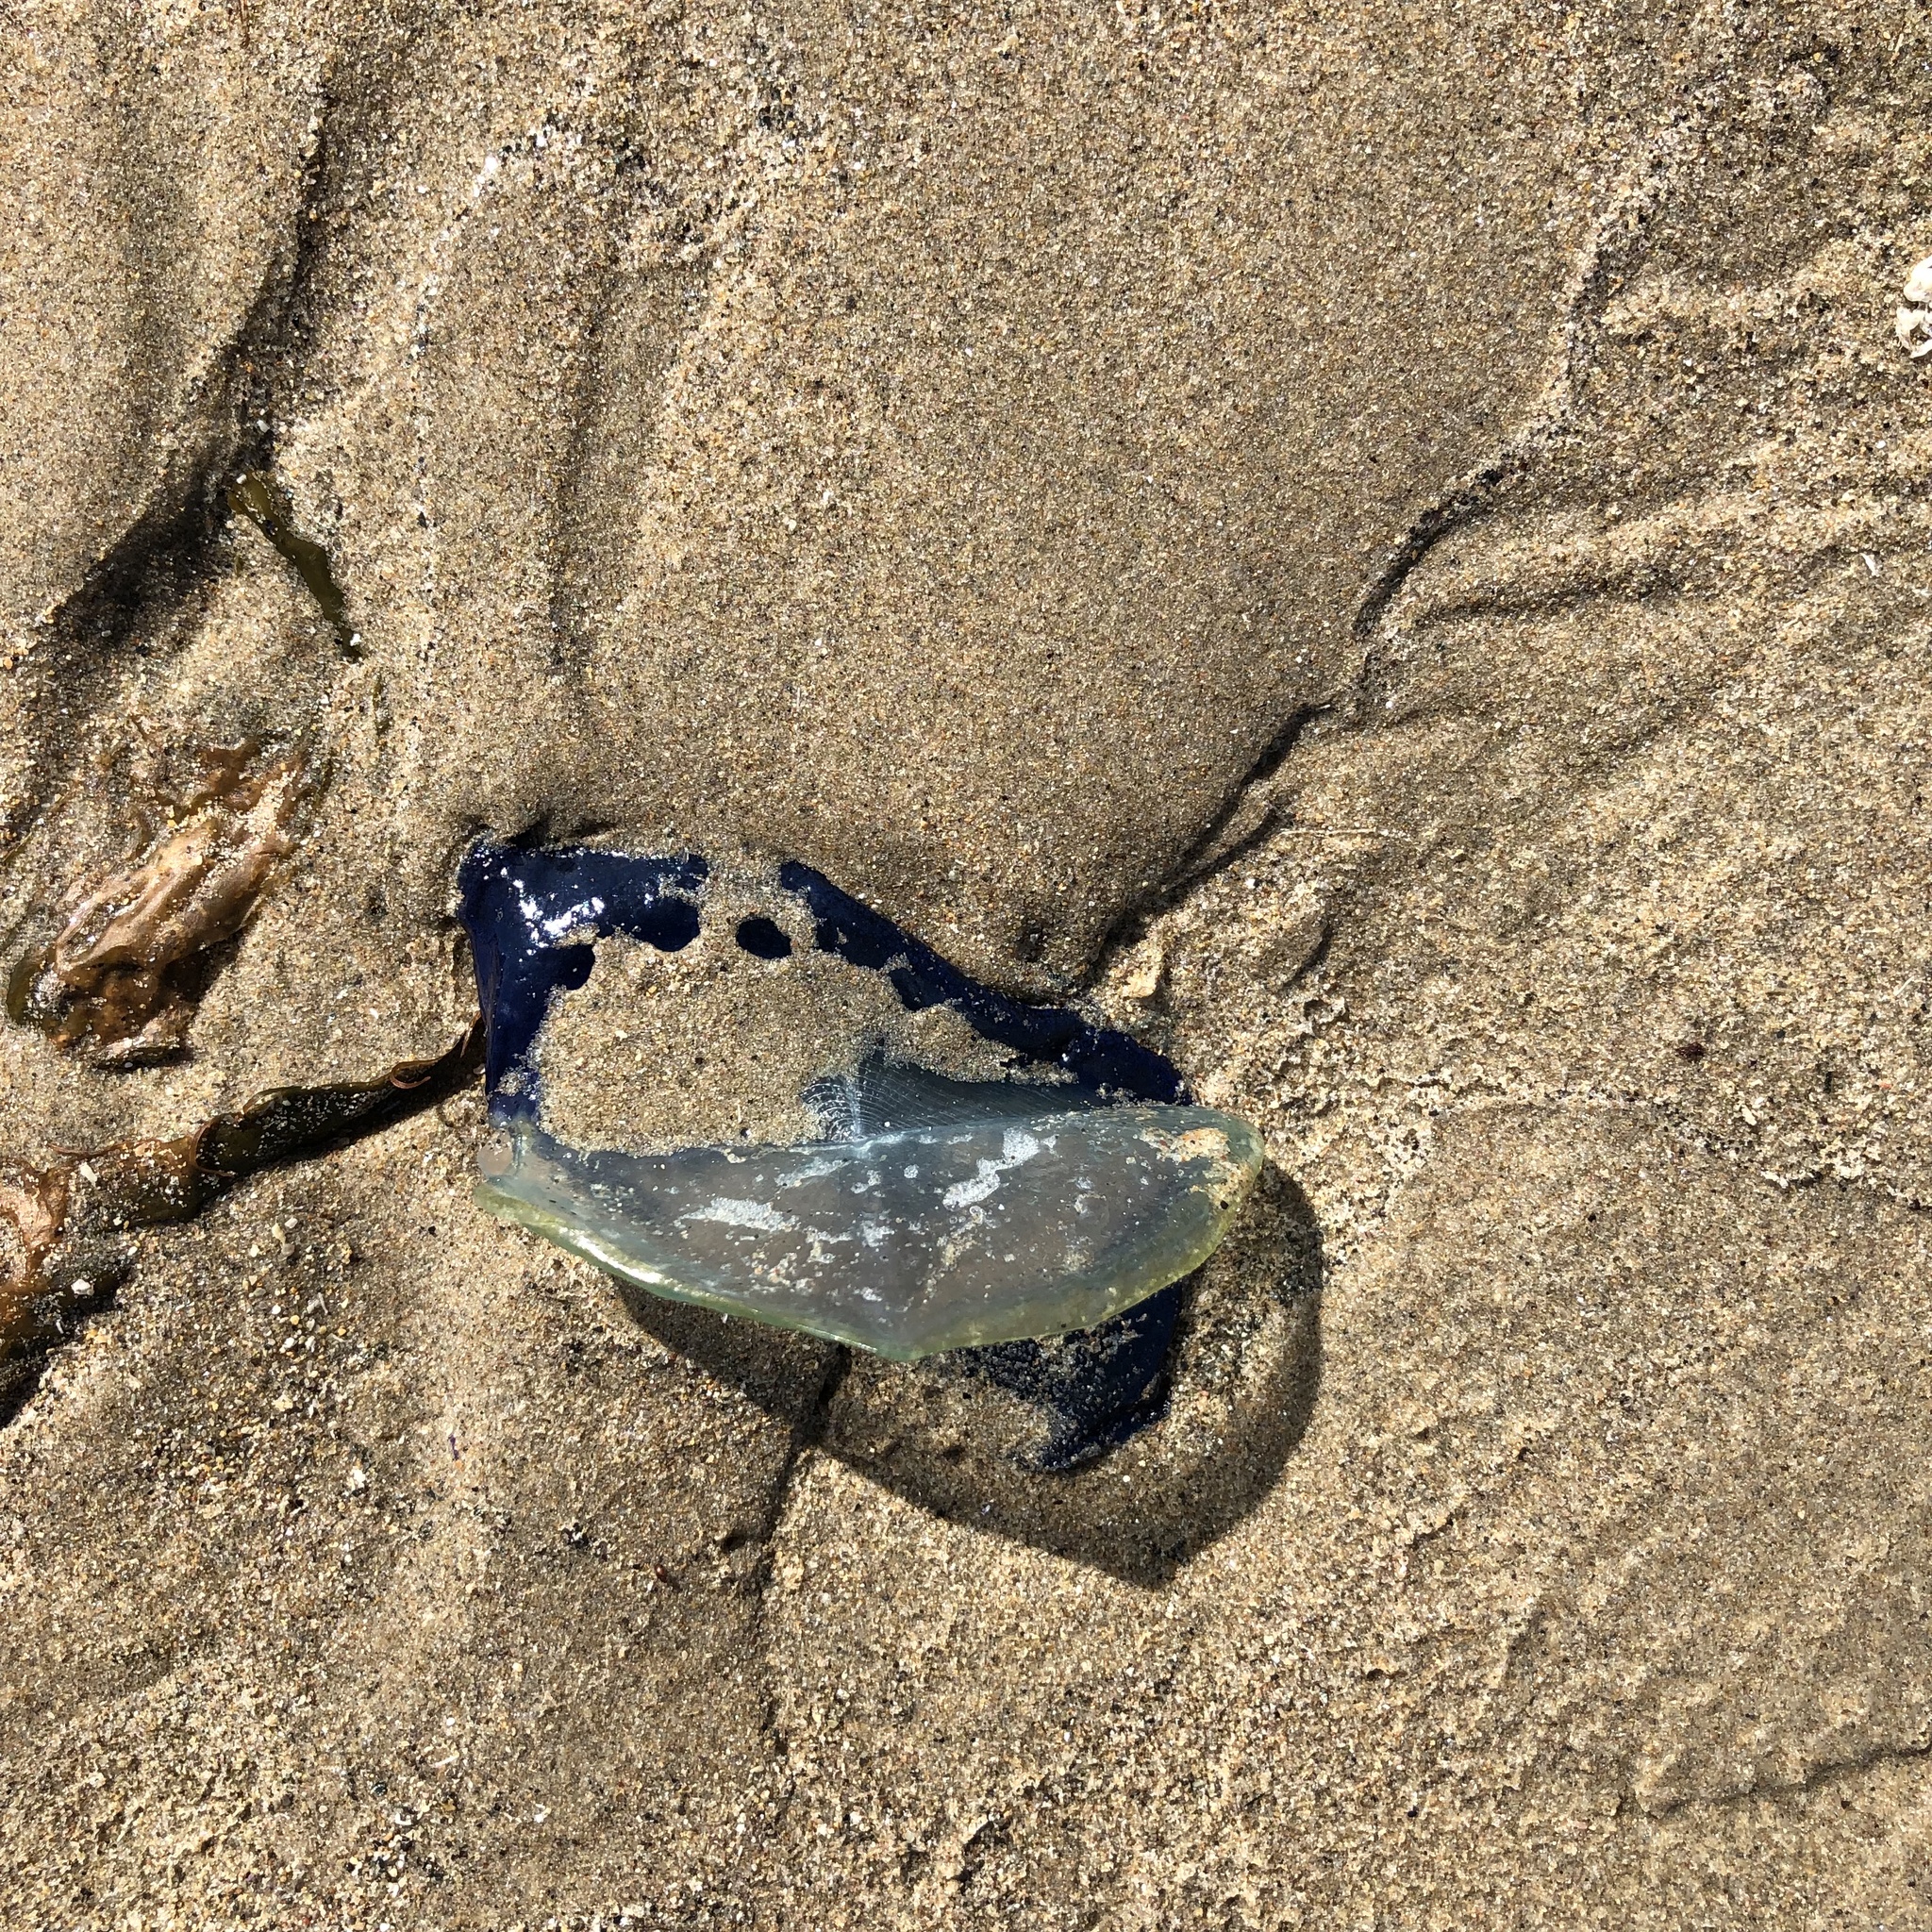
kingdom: Animalia
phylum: Cnidaria
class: Hydrozoa
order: Anthoathecata
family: Porpitidae
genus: Velella
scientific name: Velella velella
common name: By-the-wind-sailor
